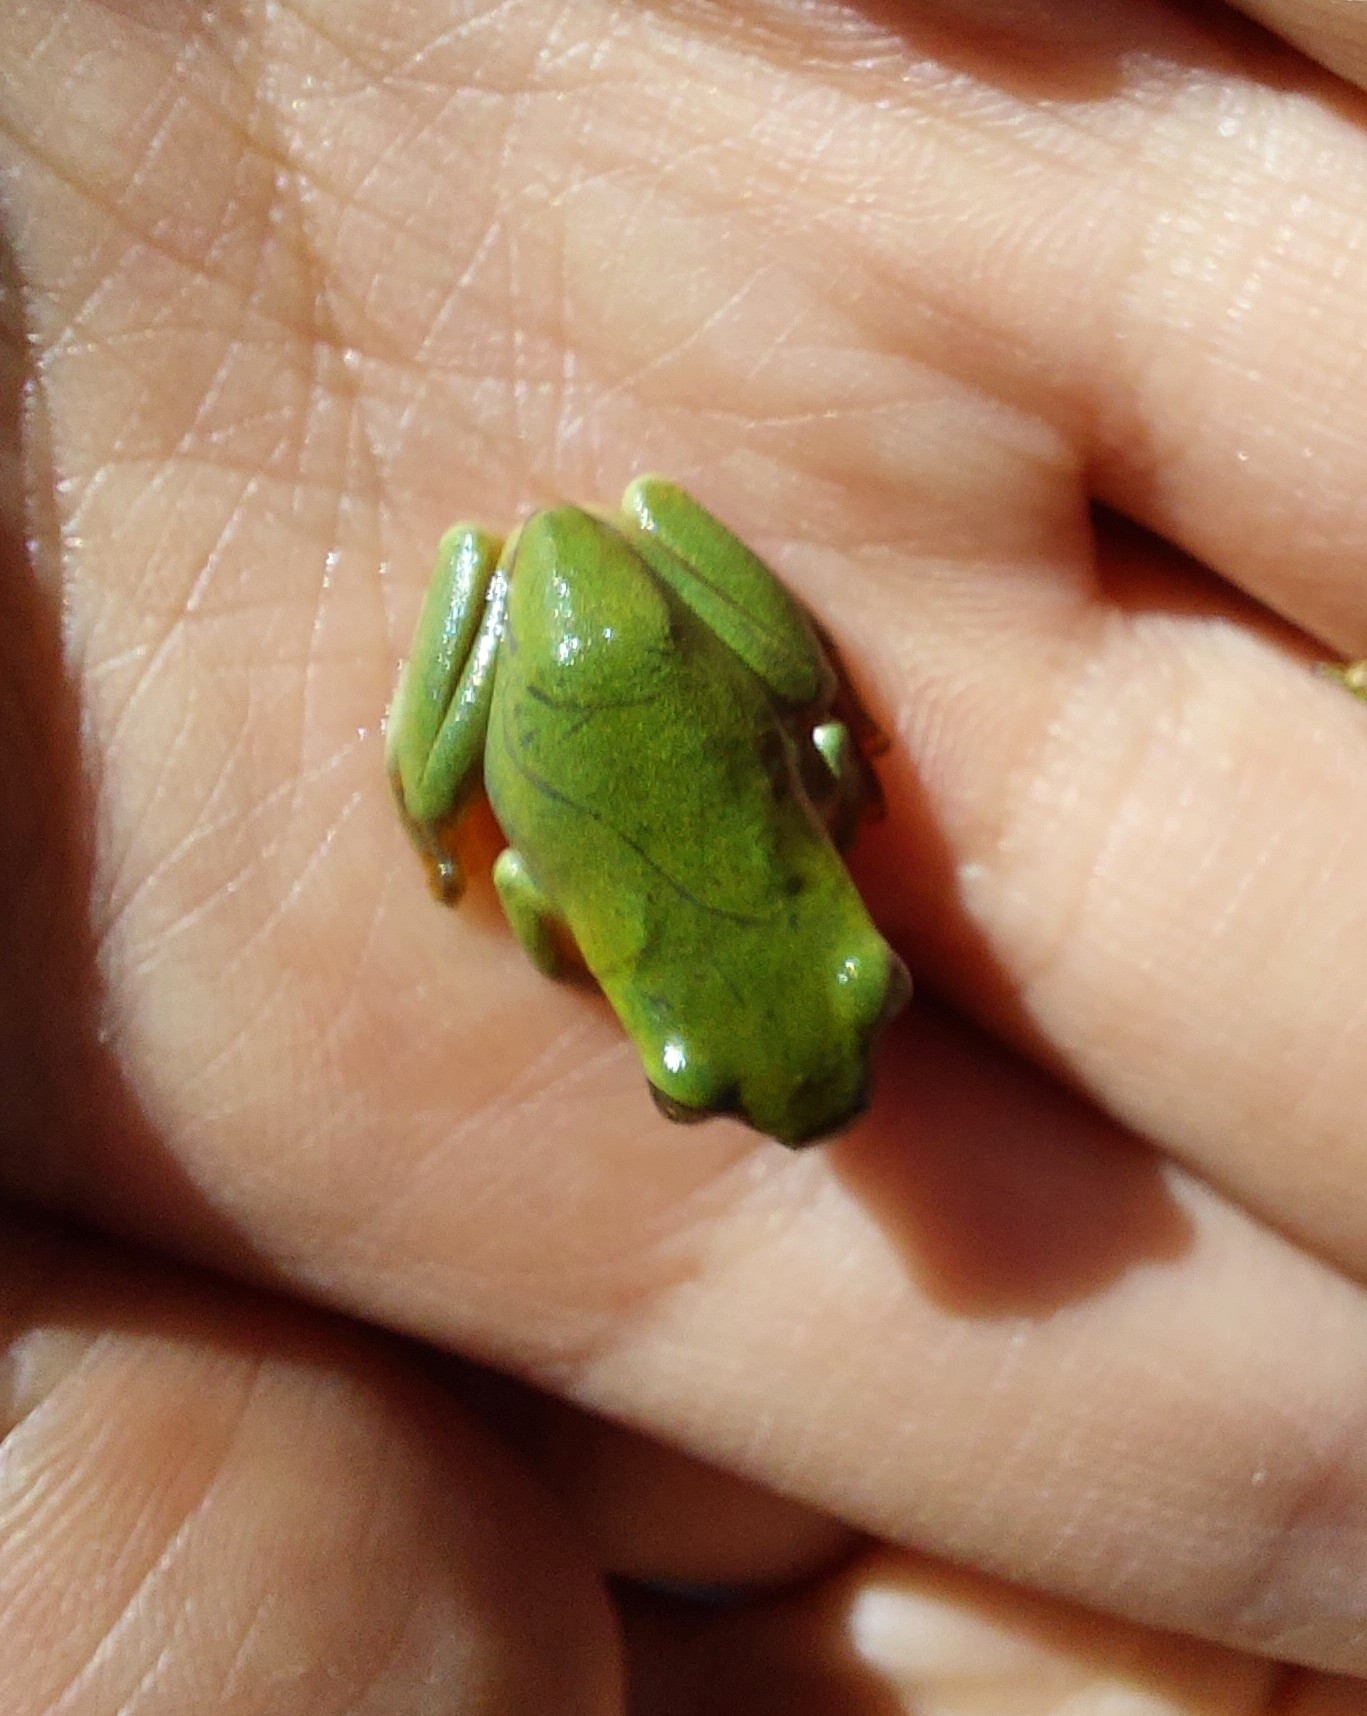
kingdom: Animalia
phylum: Chordata
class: Amphibia
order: Anura
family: Rhacophoridae
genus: Zhangixalus
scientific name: Zhangixalus taipeianus
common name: Taipei flying frog
